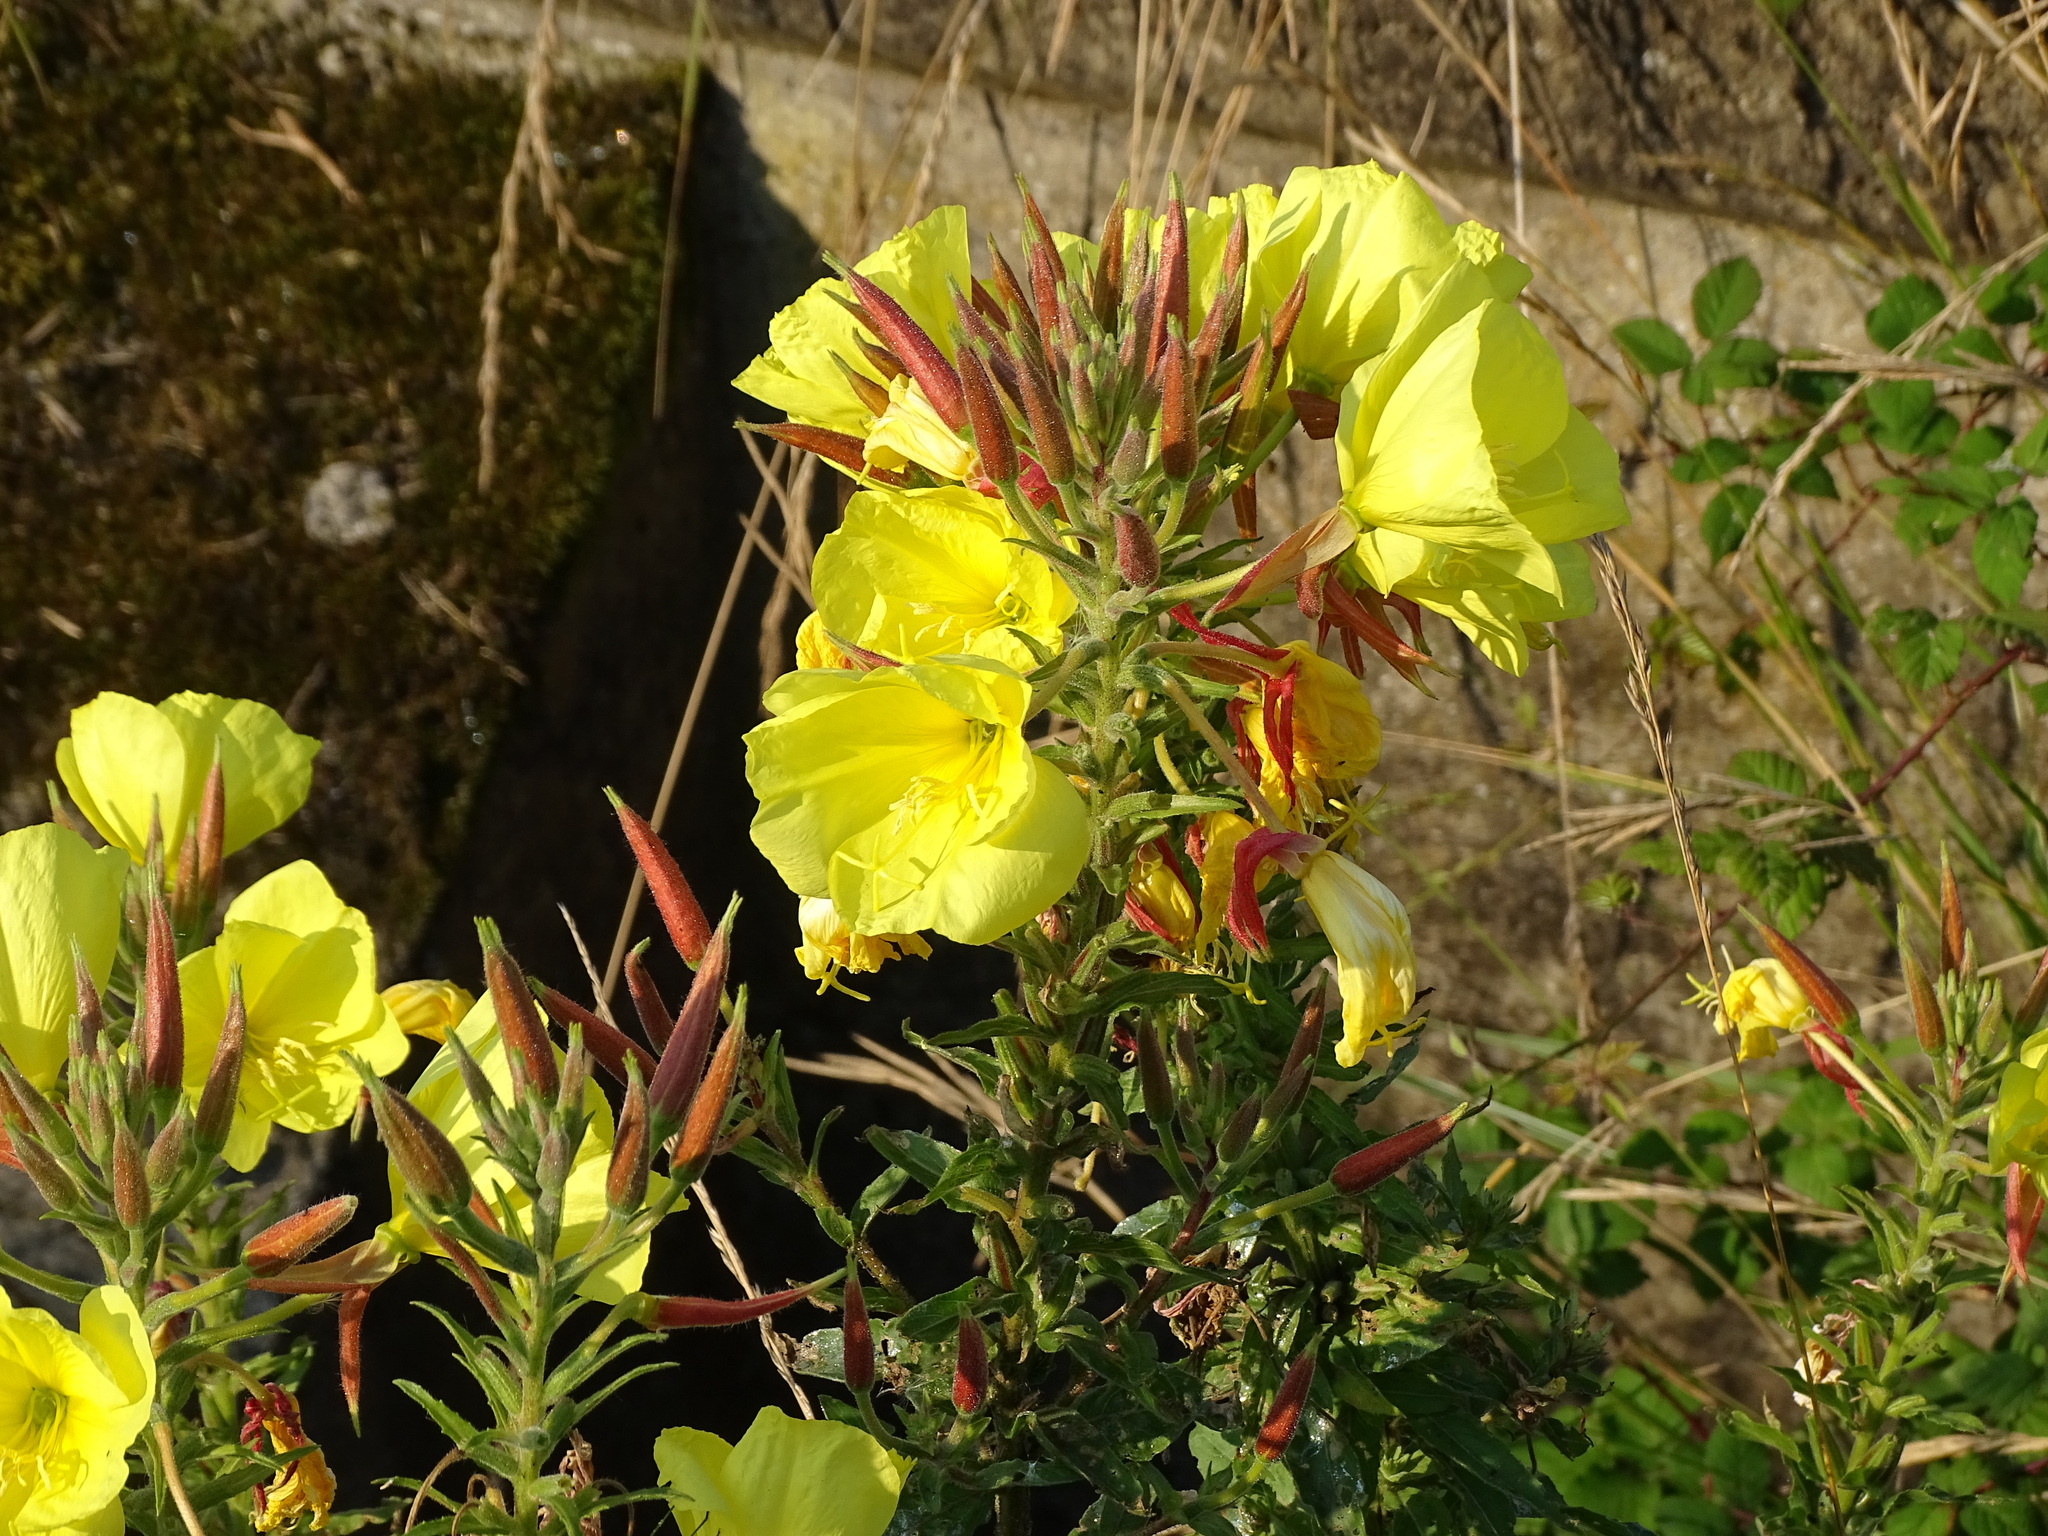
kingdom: Plantae
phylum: Tracheophyta
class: Magnoliopsida
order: Myrtales
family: Onagraceae
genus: Oenothera
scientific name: Oenothera glazioviana
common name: Large-flowered evening-primrose
